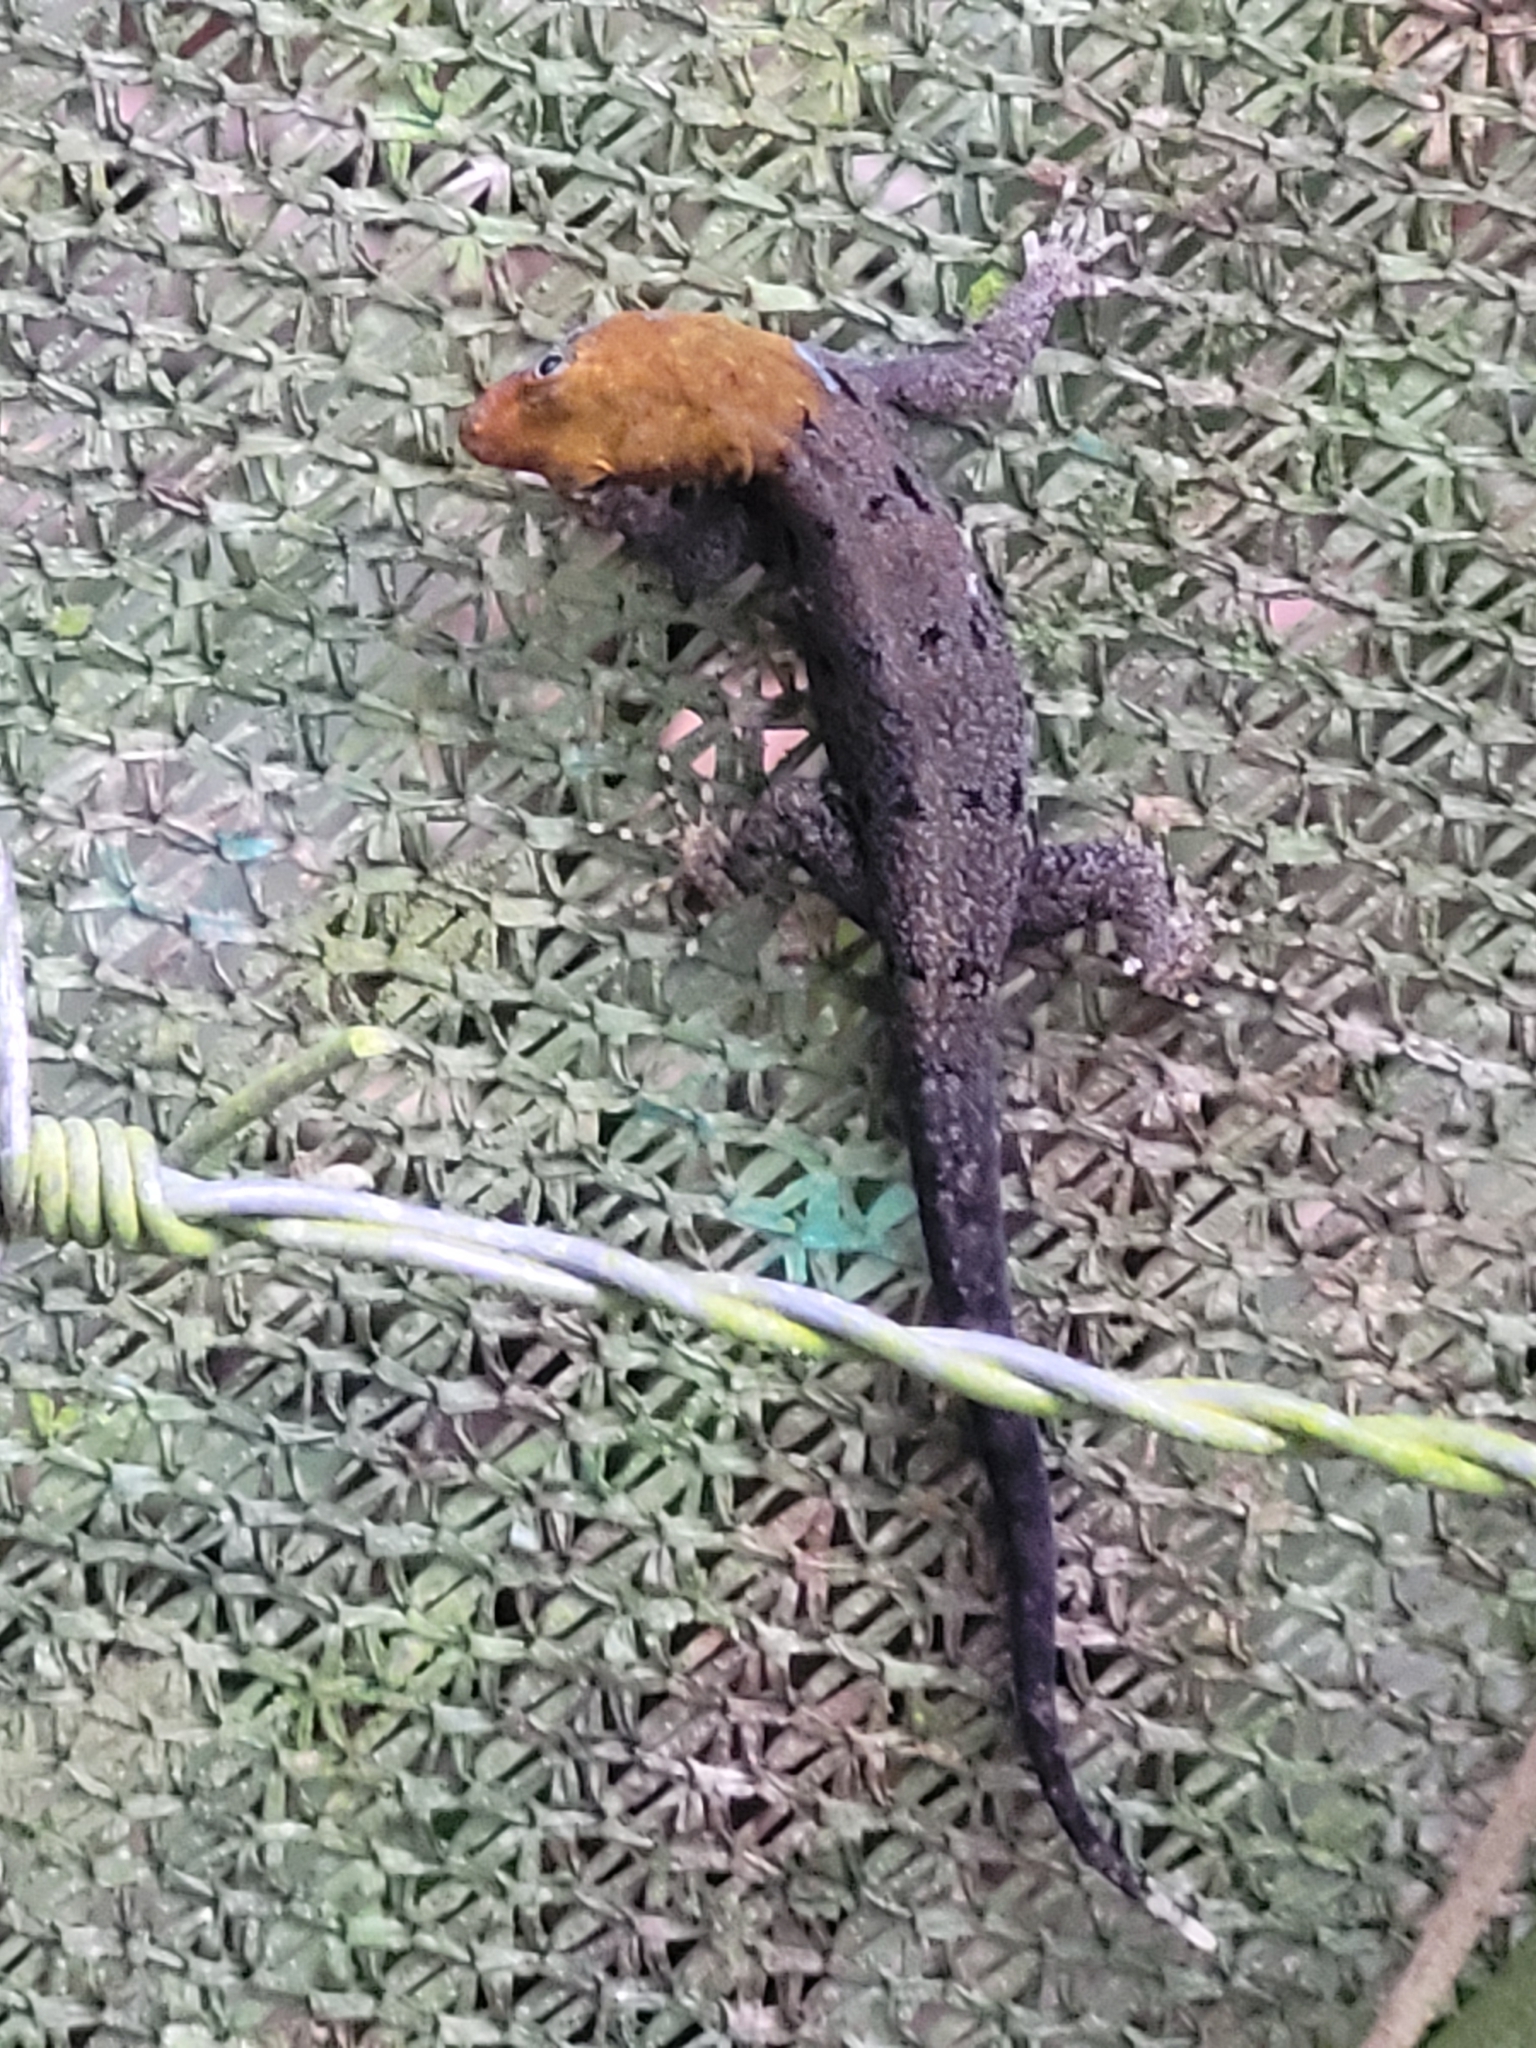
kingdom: Animalia
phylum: Chordata
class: Squamata
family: Sphaerodactylidae
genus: Gonatodes
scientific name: Gonatodes albogularis
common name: Yellow-headed gecko
